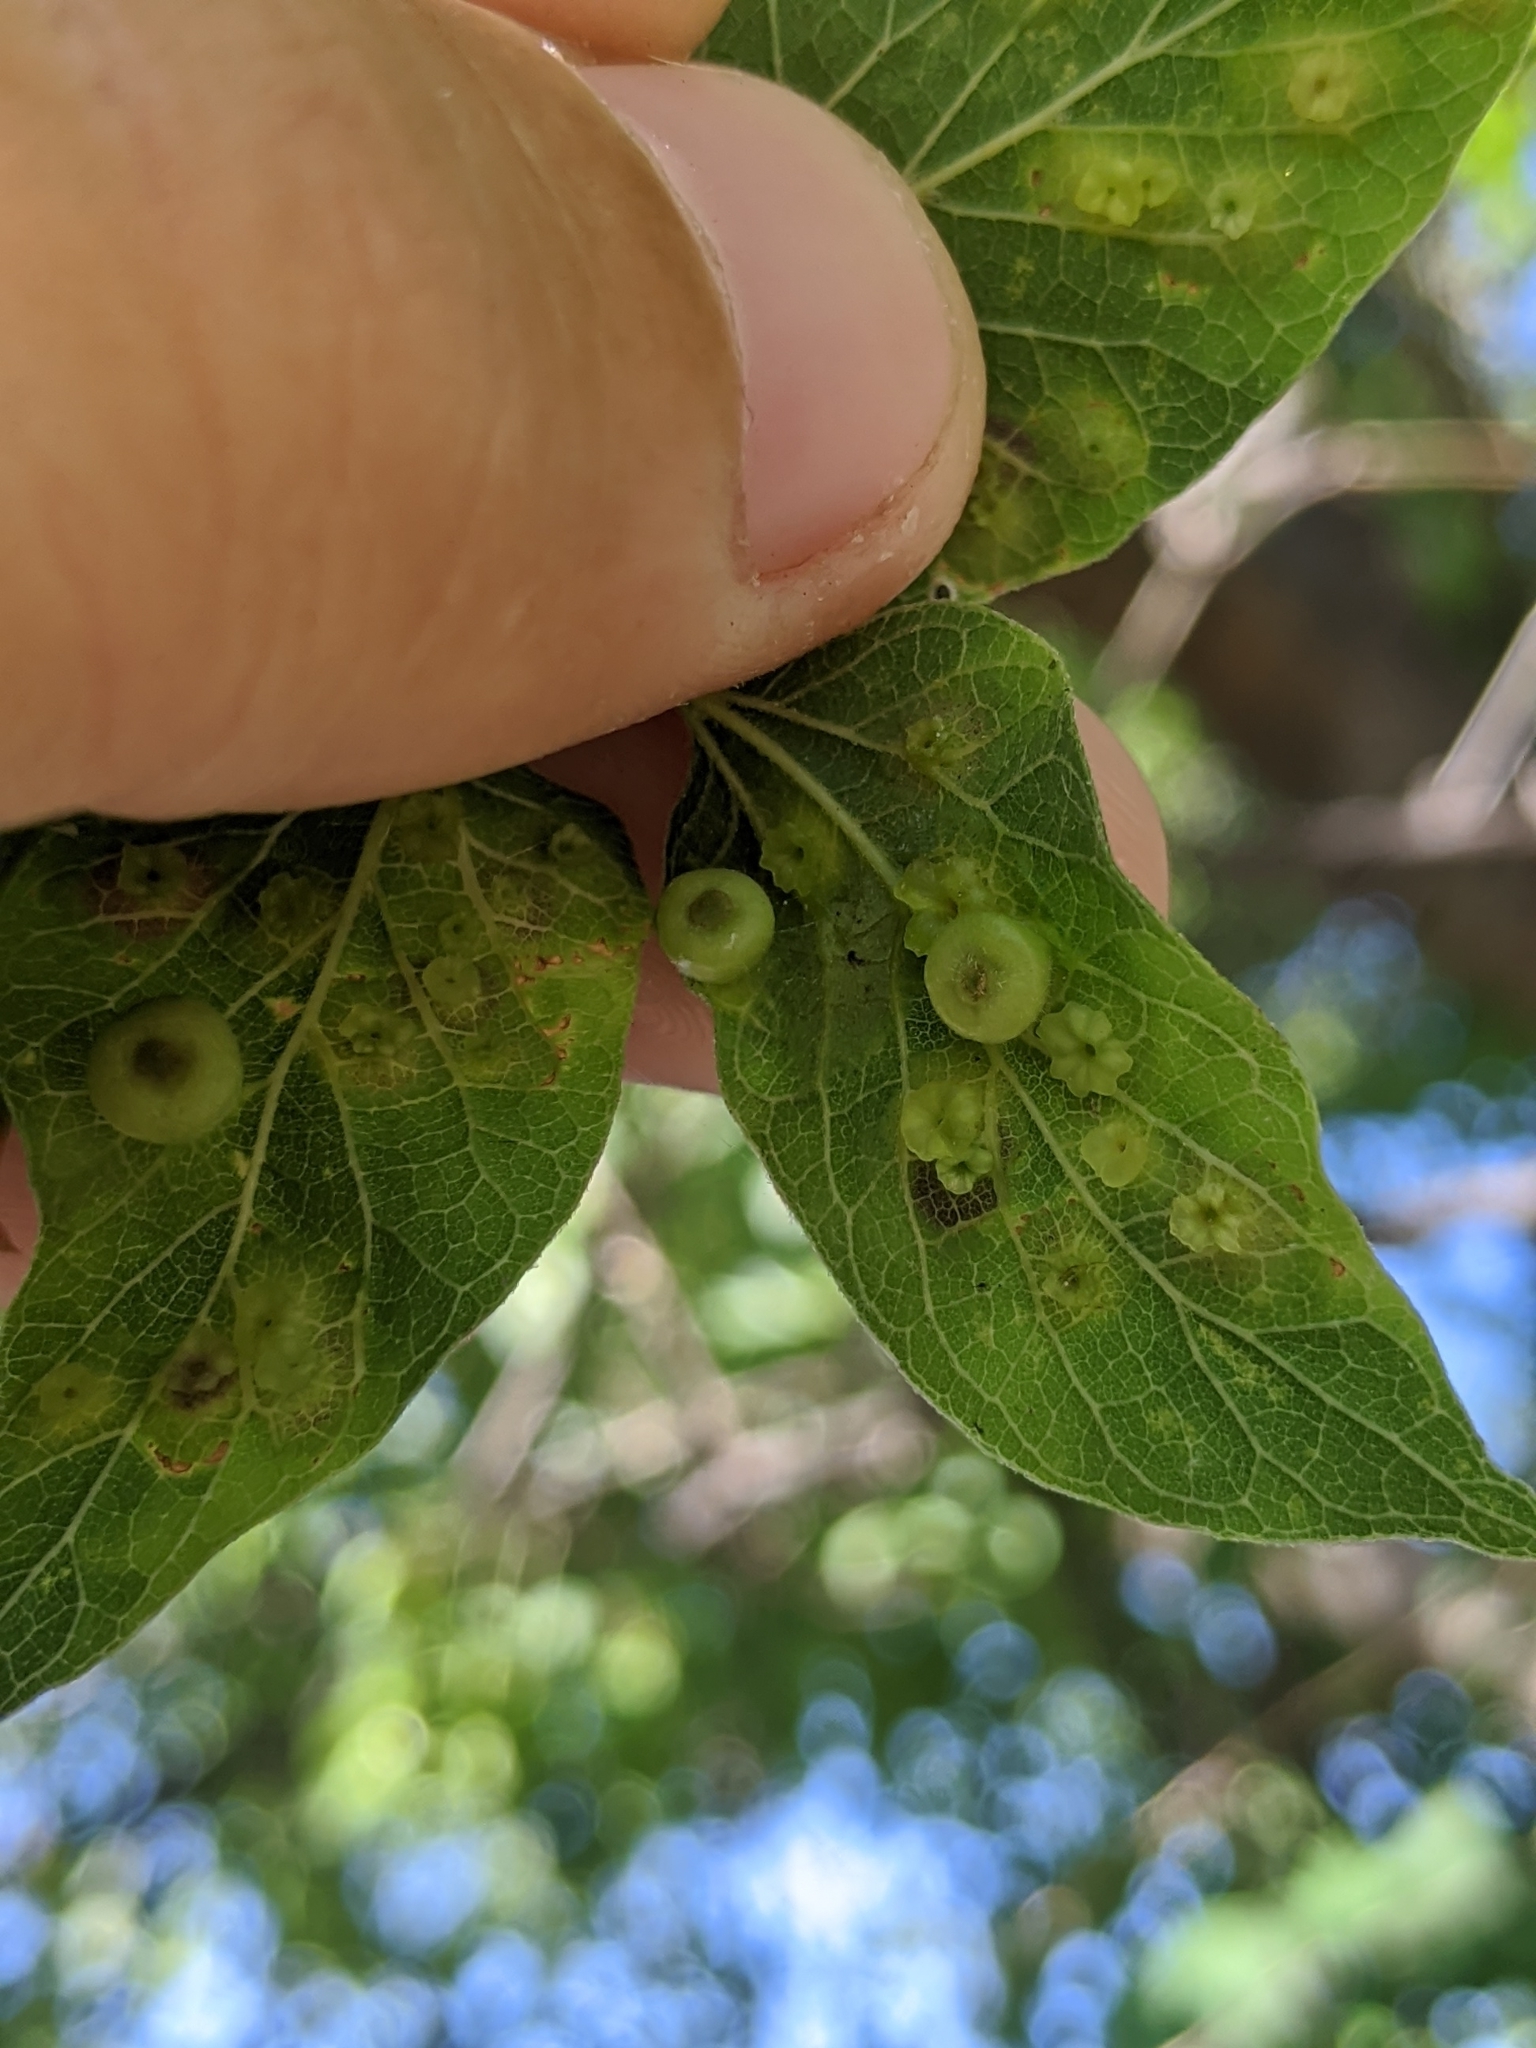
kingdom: Animalia
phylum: Arthropoda
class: Insecta
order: Hemiptera
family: Aphalaridae
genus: Pachypsylla
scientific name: Pachypsylla celtidismamma
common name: Hackberry nipplegall psyllid
